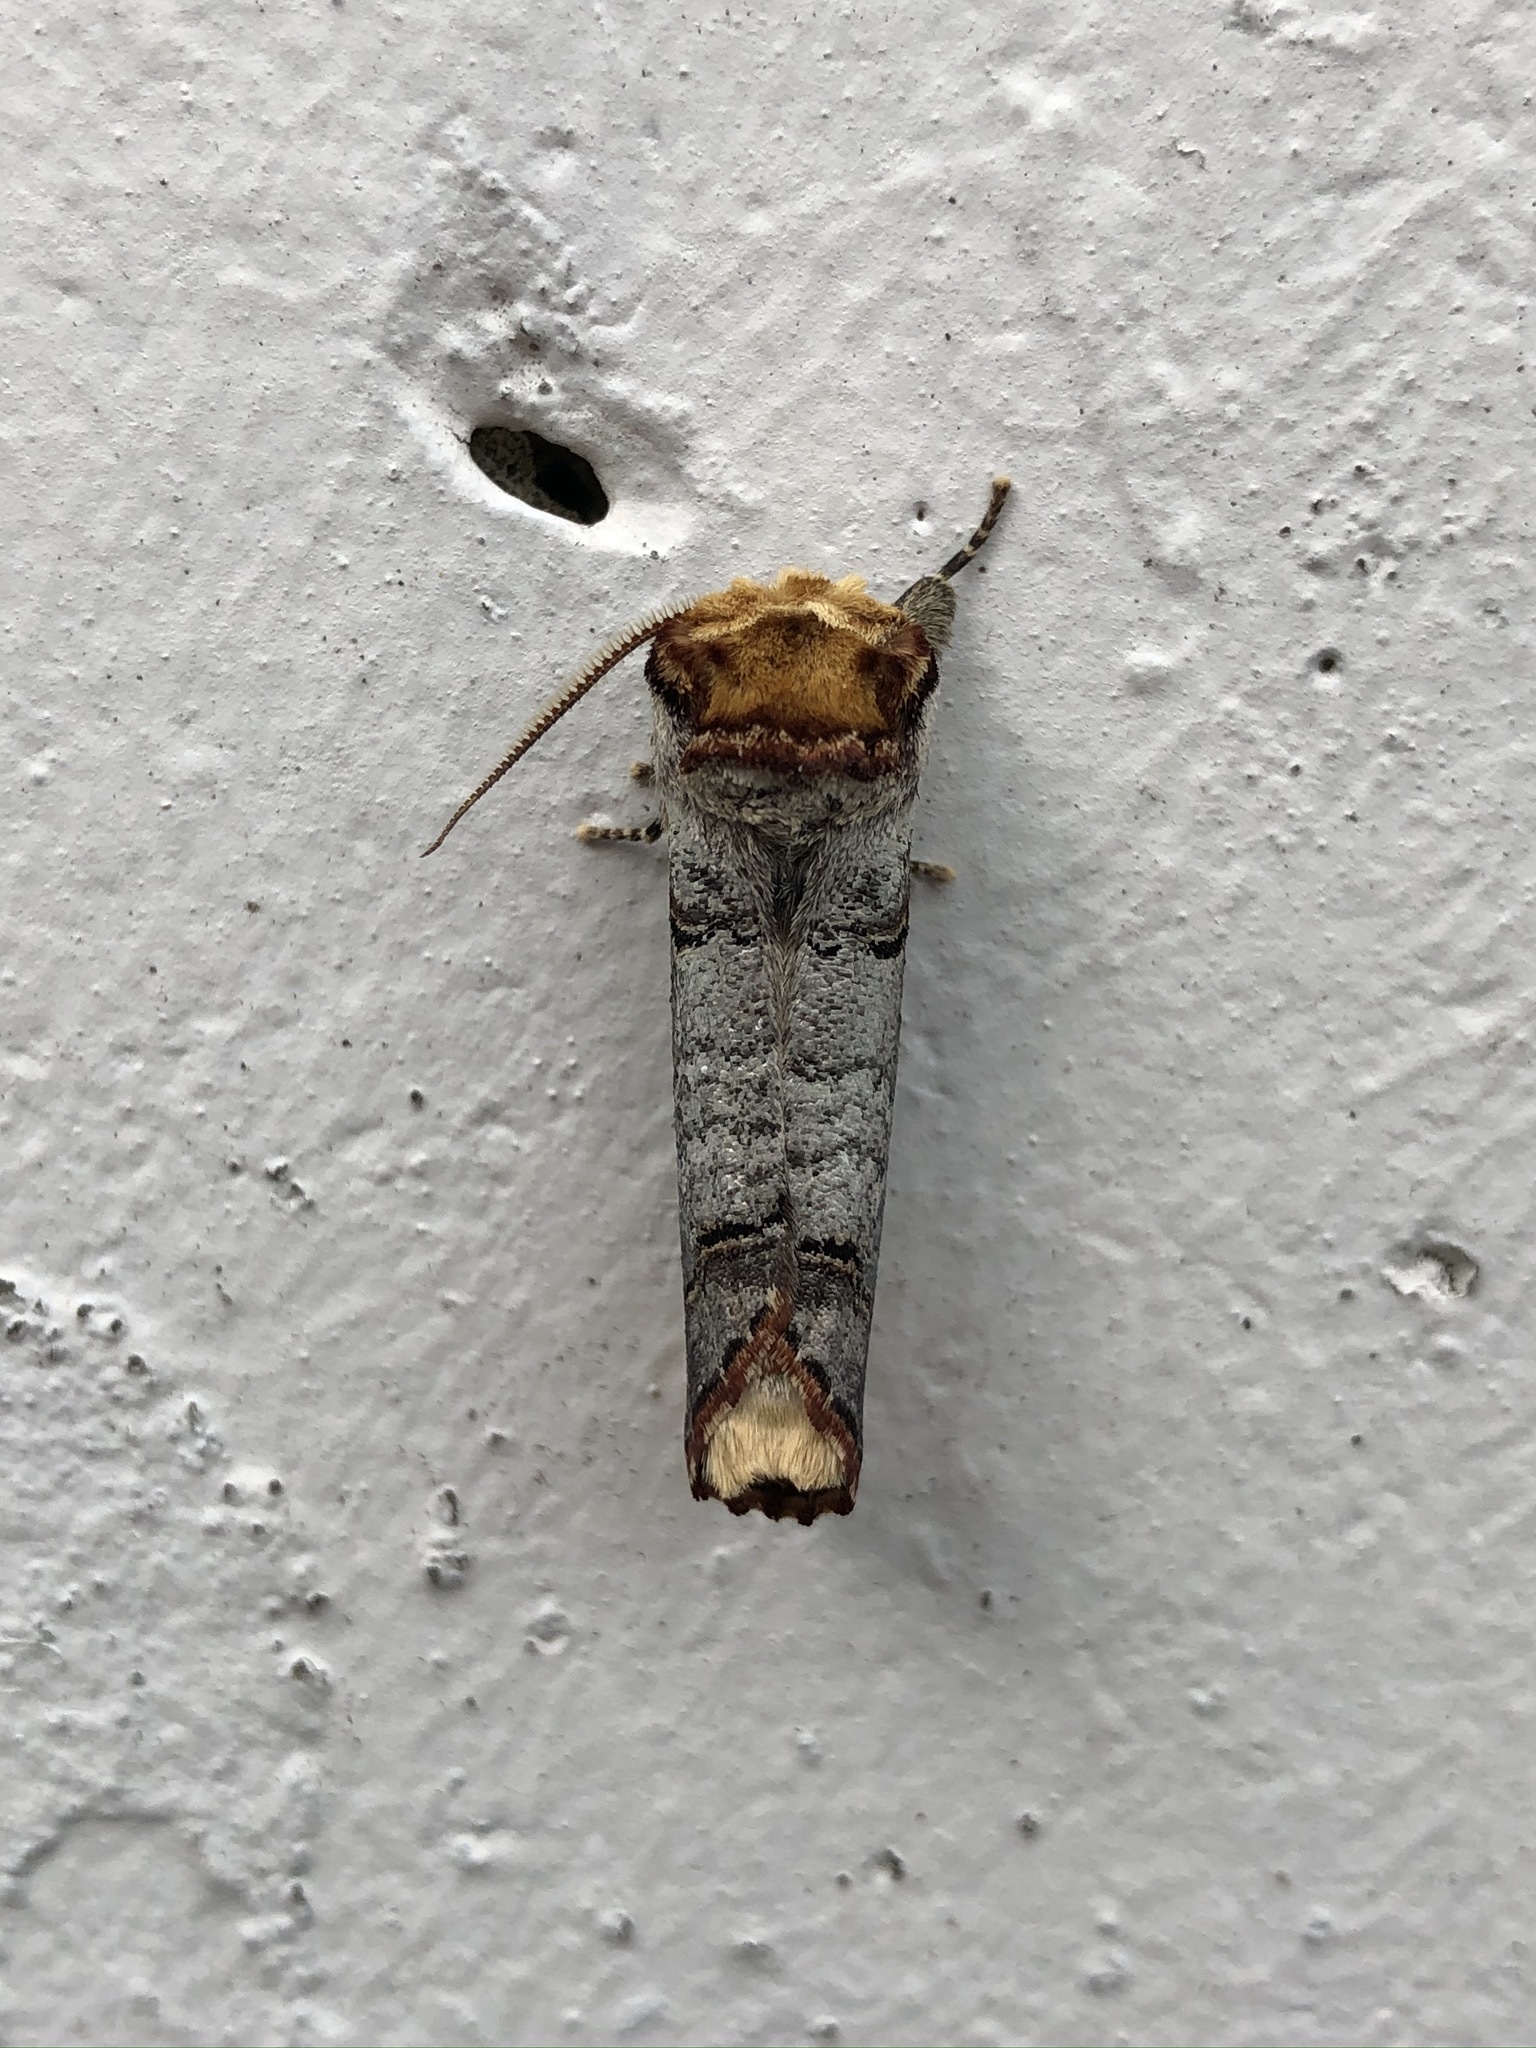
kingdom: Animalia
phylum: Arthropoda
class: Insecta
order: Lepidoptera
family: Notodontidae
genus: Phalera
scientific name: Phalera bucephala
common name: Buff-tip
